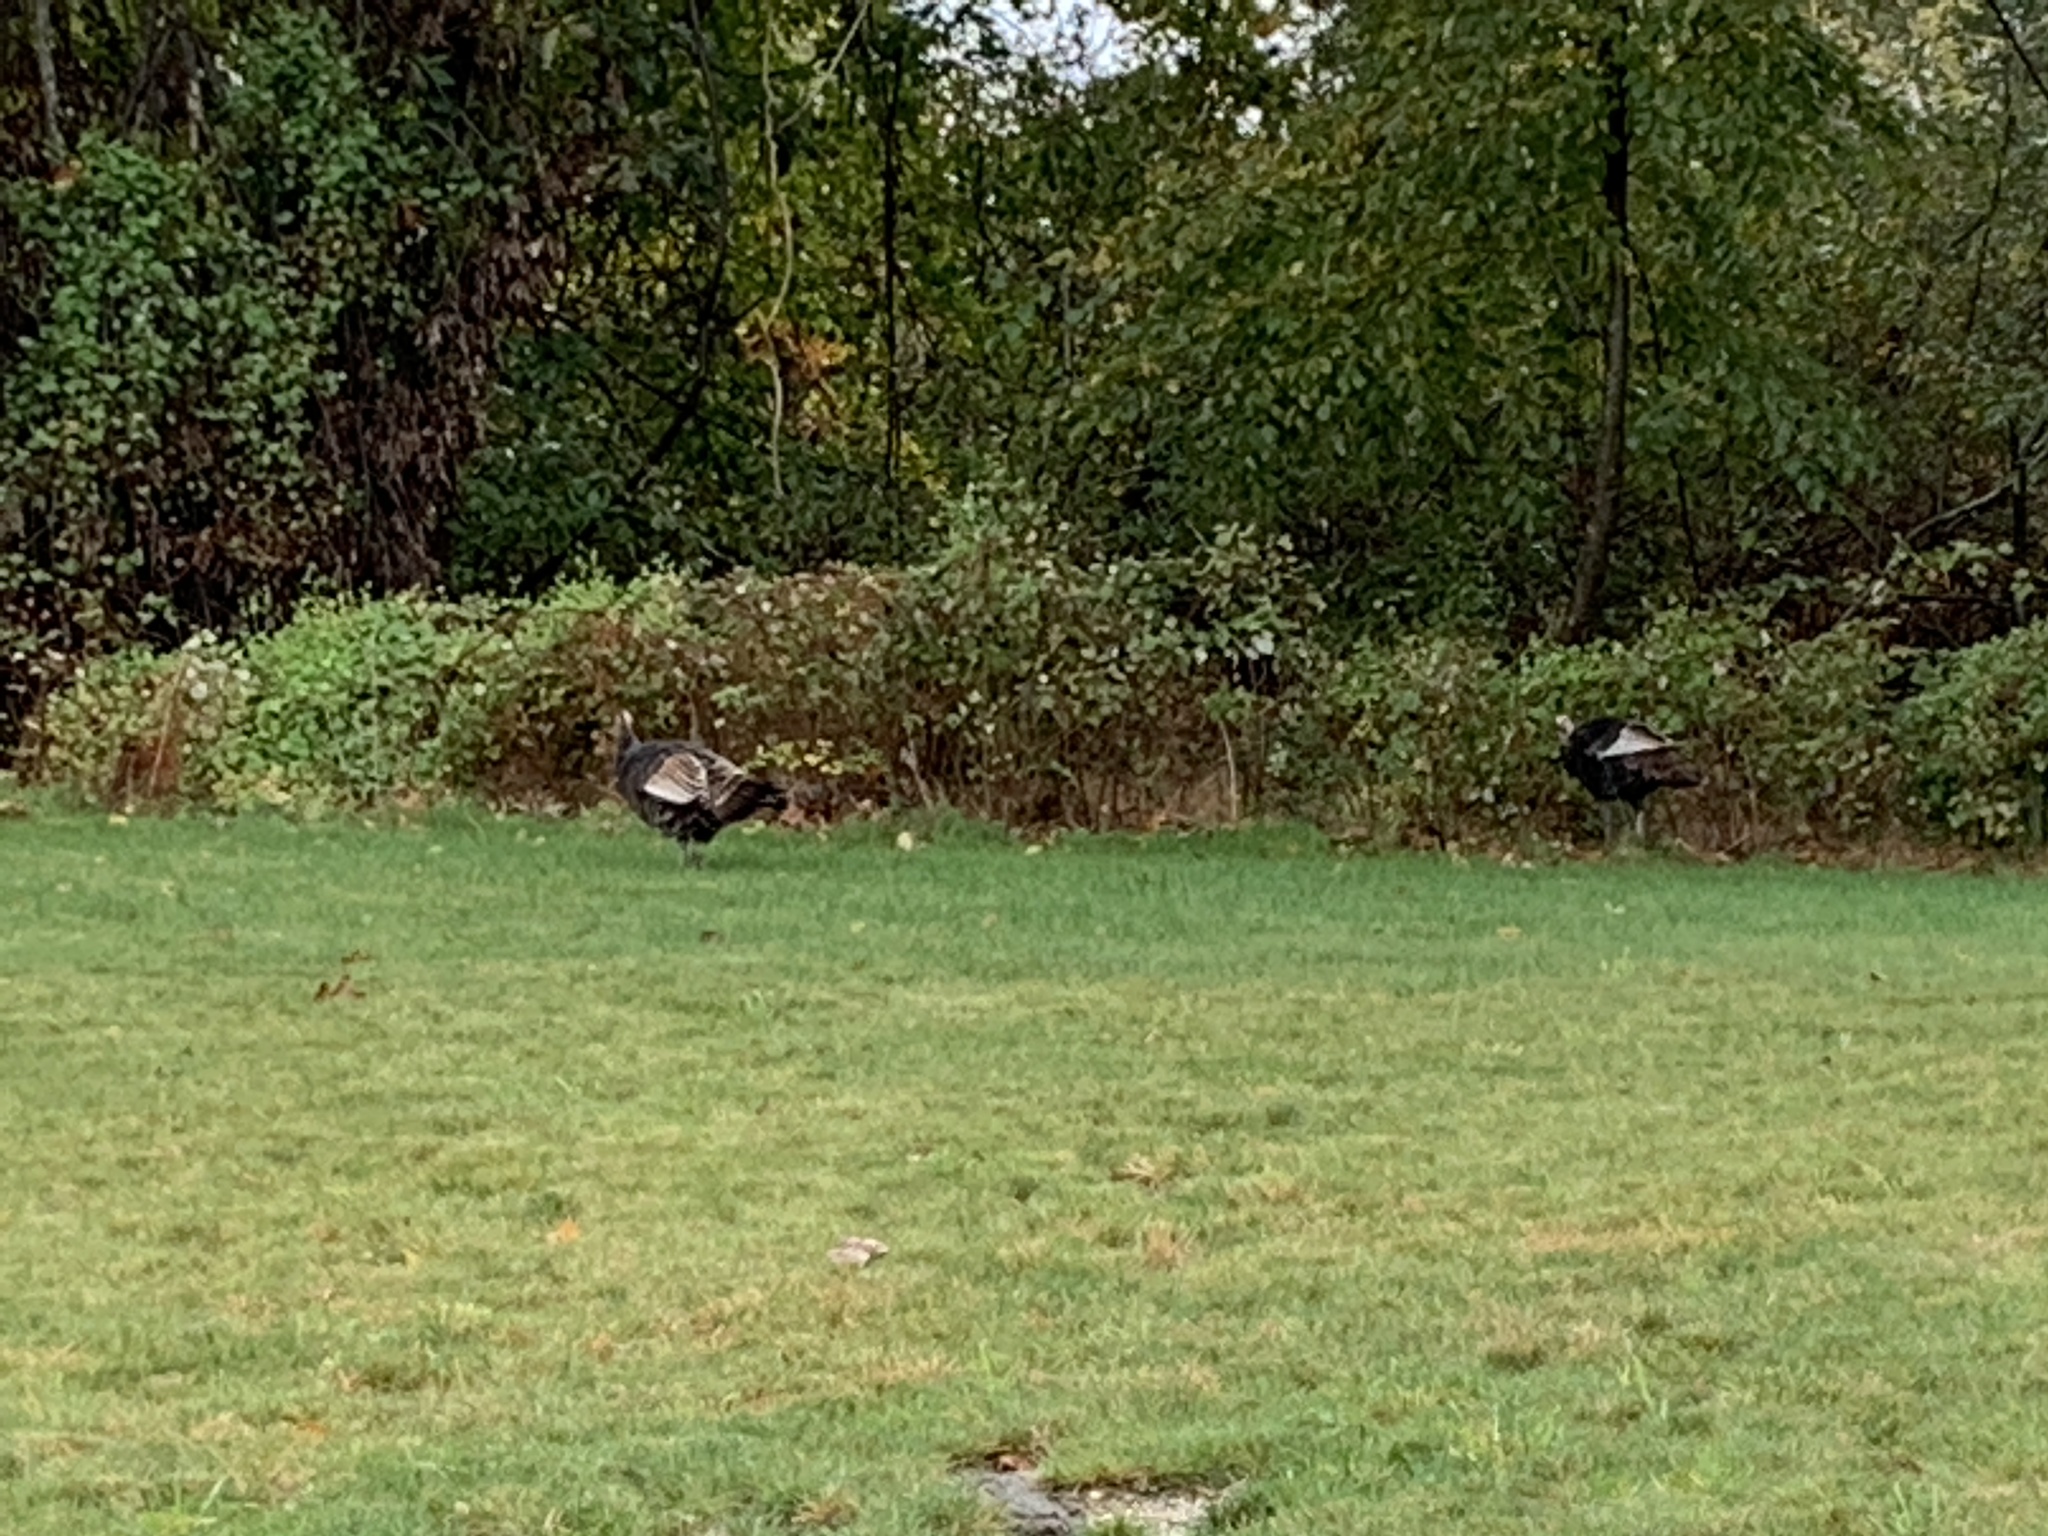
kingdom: Animalia
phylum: Chordata
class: Aves
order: Galliformes
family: Phasianidae
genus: Meleagris
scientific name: Meleagris gallopavo
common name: Wild turkey
